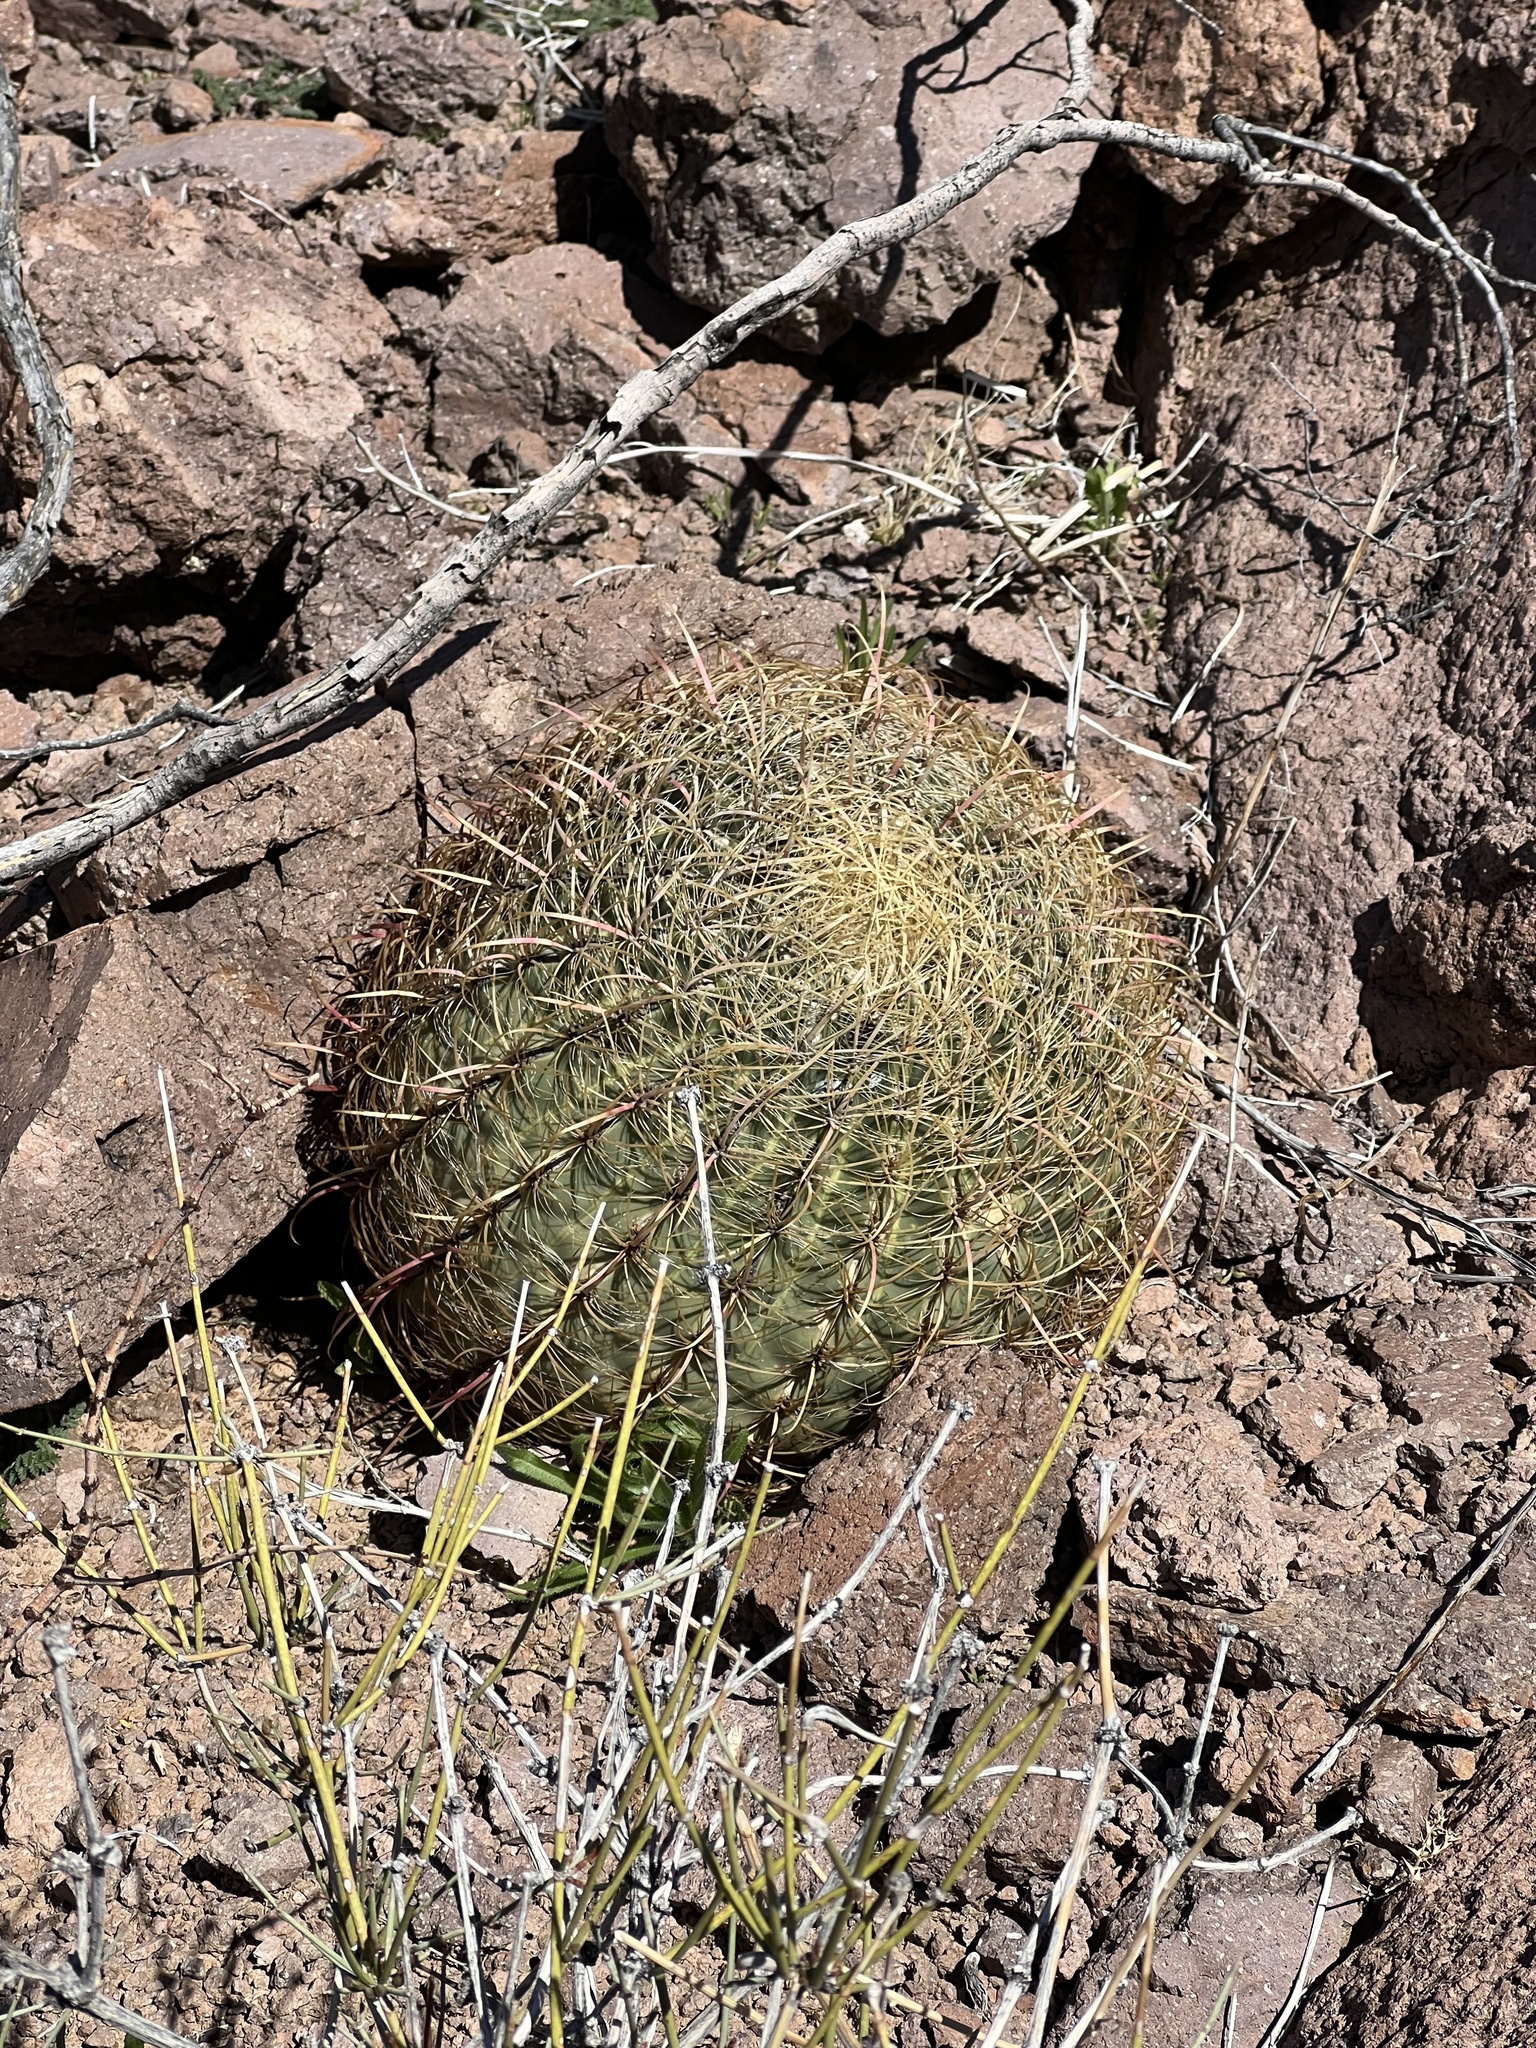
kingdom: Plantae
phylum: Tracheophyta
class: Magnoliopsida
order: Caryophyllales
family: Cactaceae
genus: Ferocactus
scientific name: Ferocactus cylindraceus
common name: California barrel cactus
